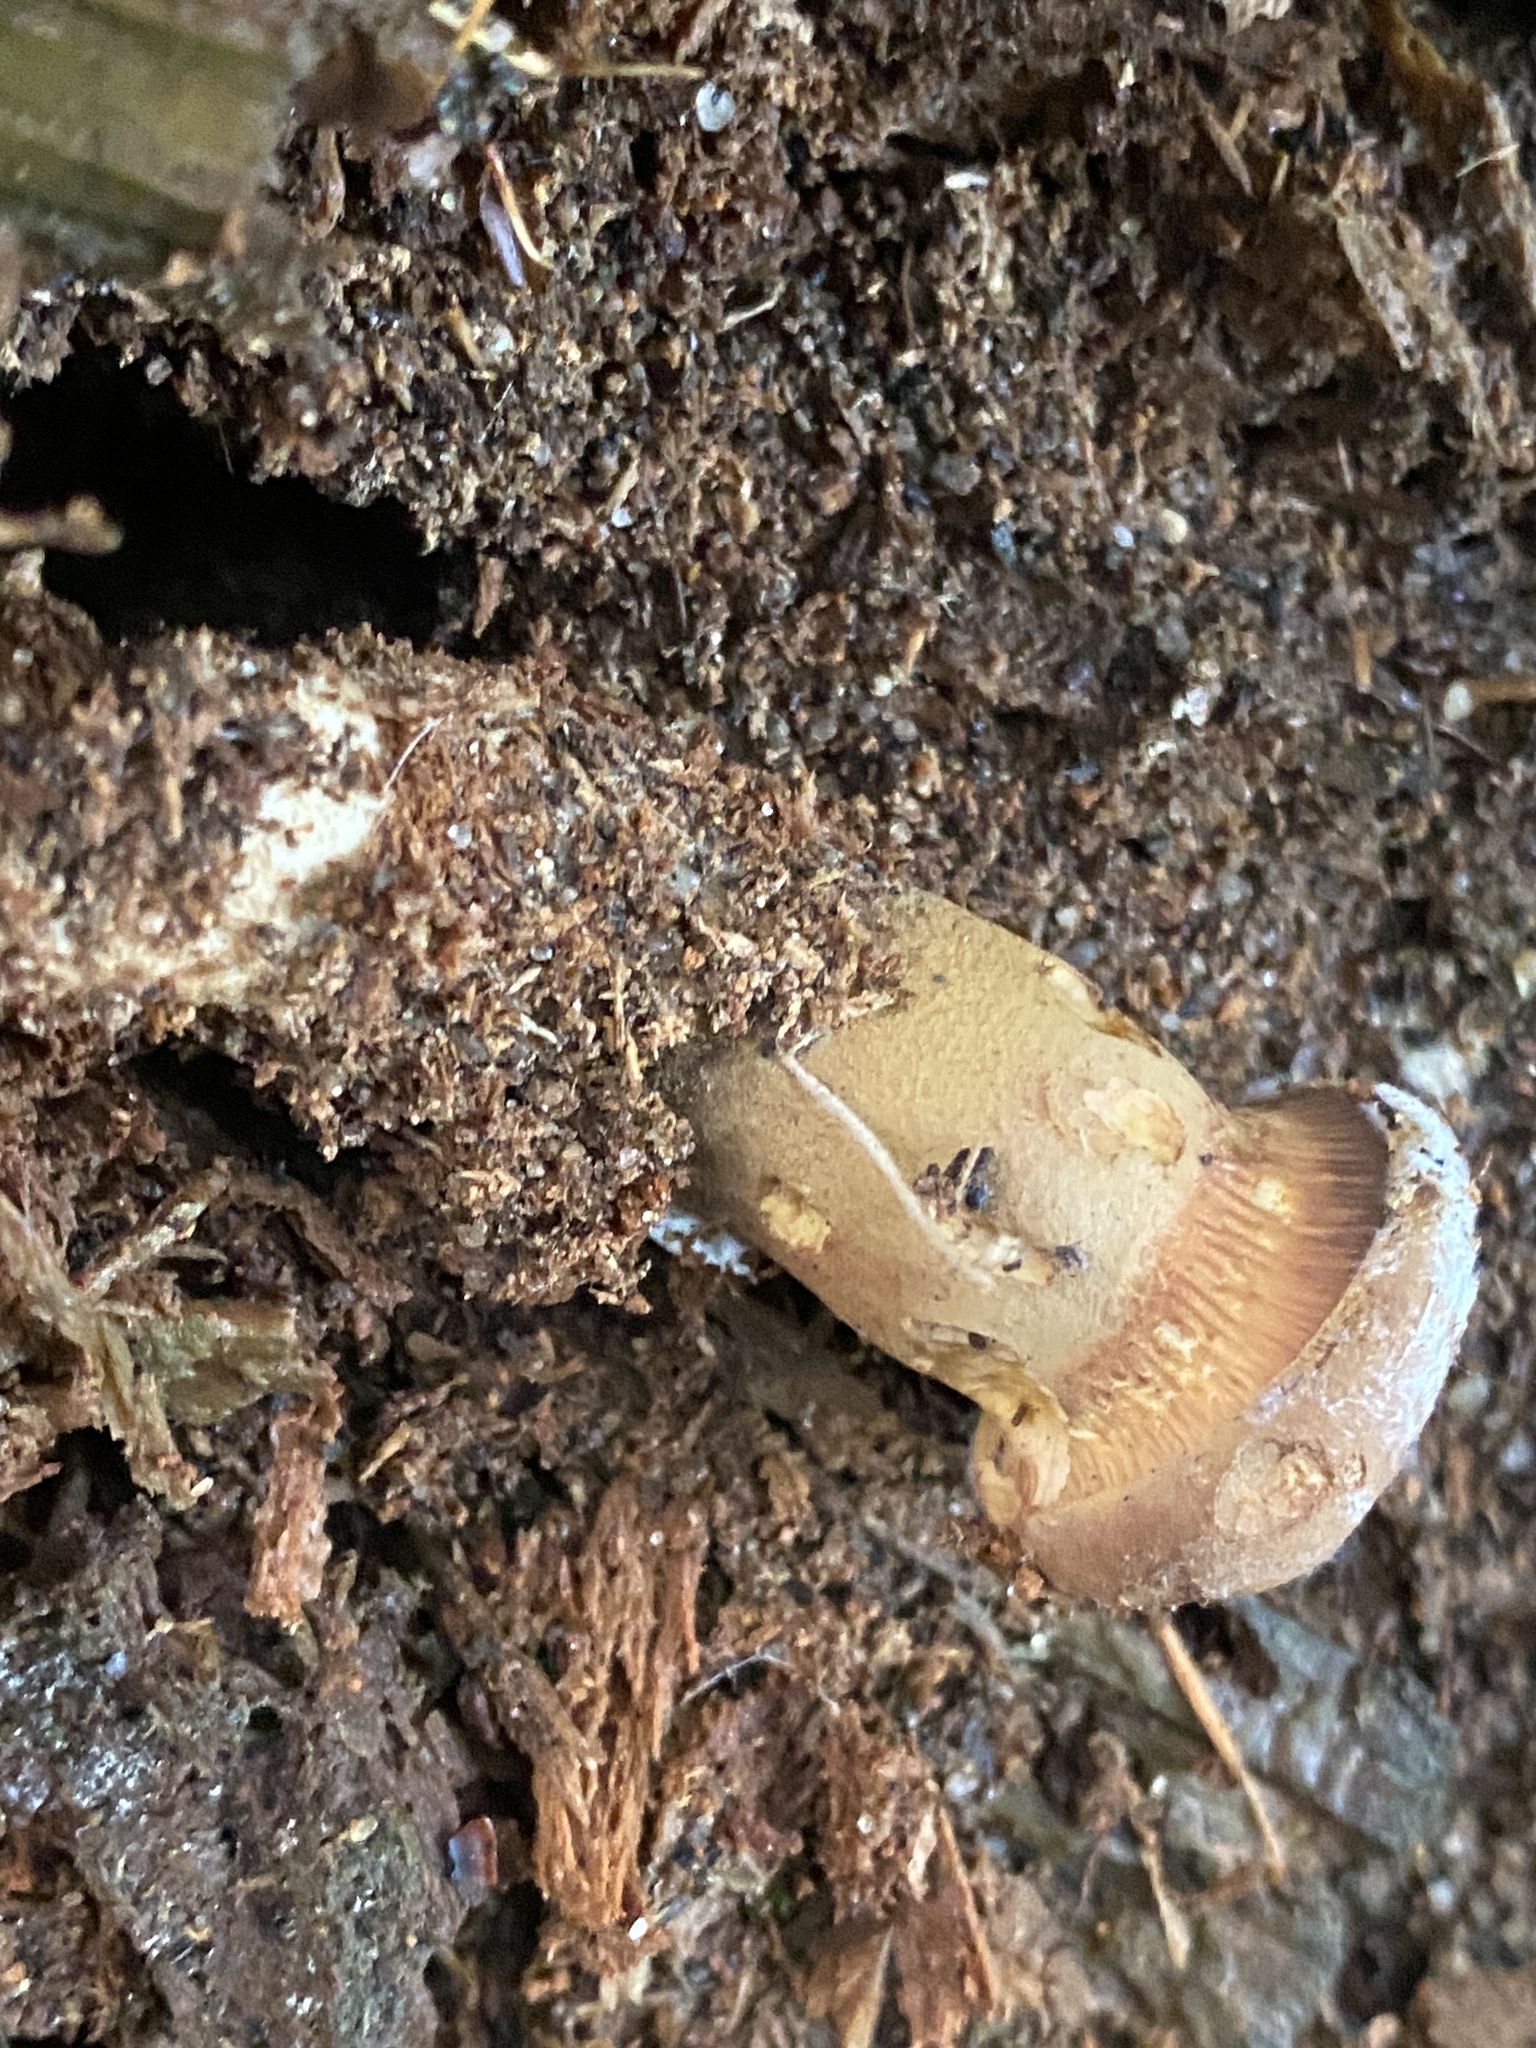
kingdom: Fungi
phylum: Basidiomycota
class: Agaricomycetes
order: Boletales
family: Tapinellaceae
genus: Tapinella
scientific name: Tapinella atrotomentosa
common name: Velvet rollrim
